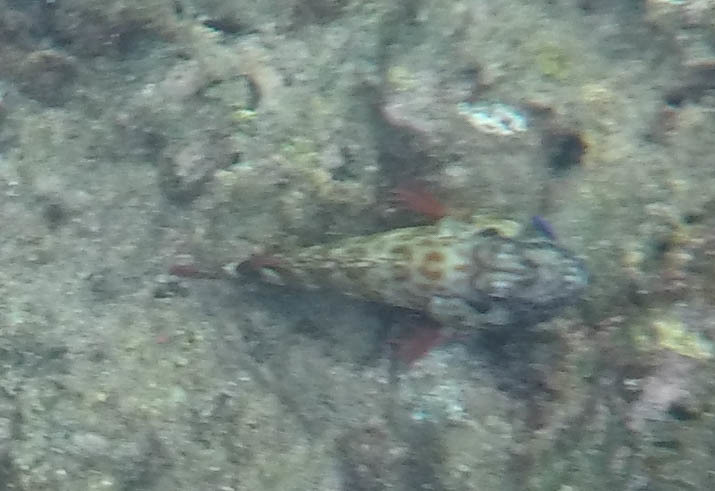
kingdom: Animalia
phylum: Chordata
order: Perciformes
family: Cirrhitidae
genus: Cirrhitus
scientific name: Cirrhitus pinnulatus
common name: Stocky hawkfish
